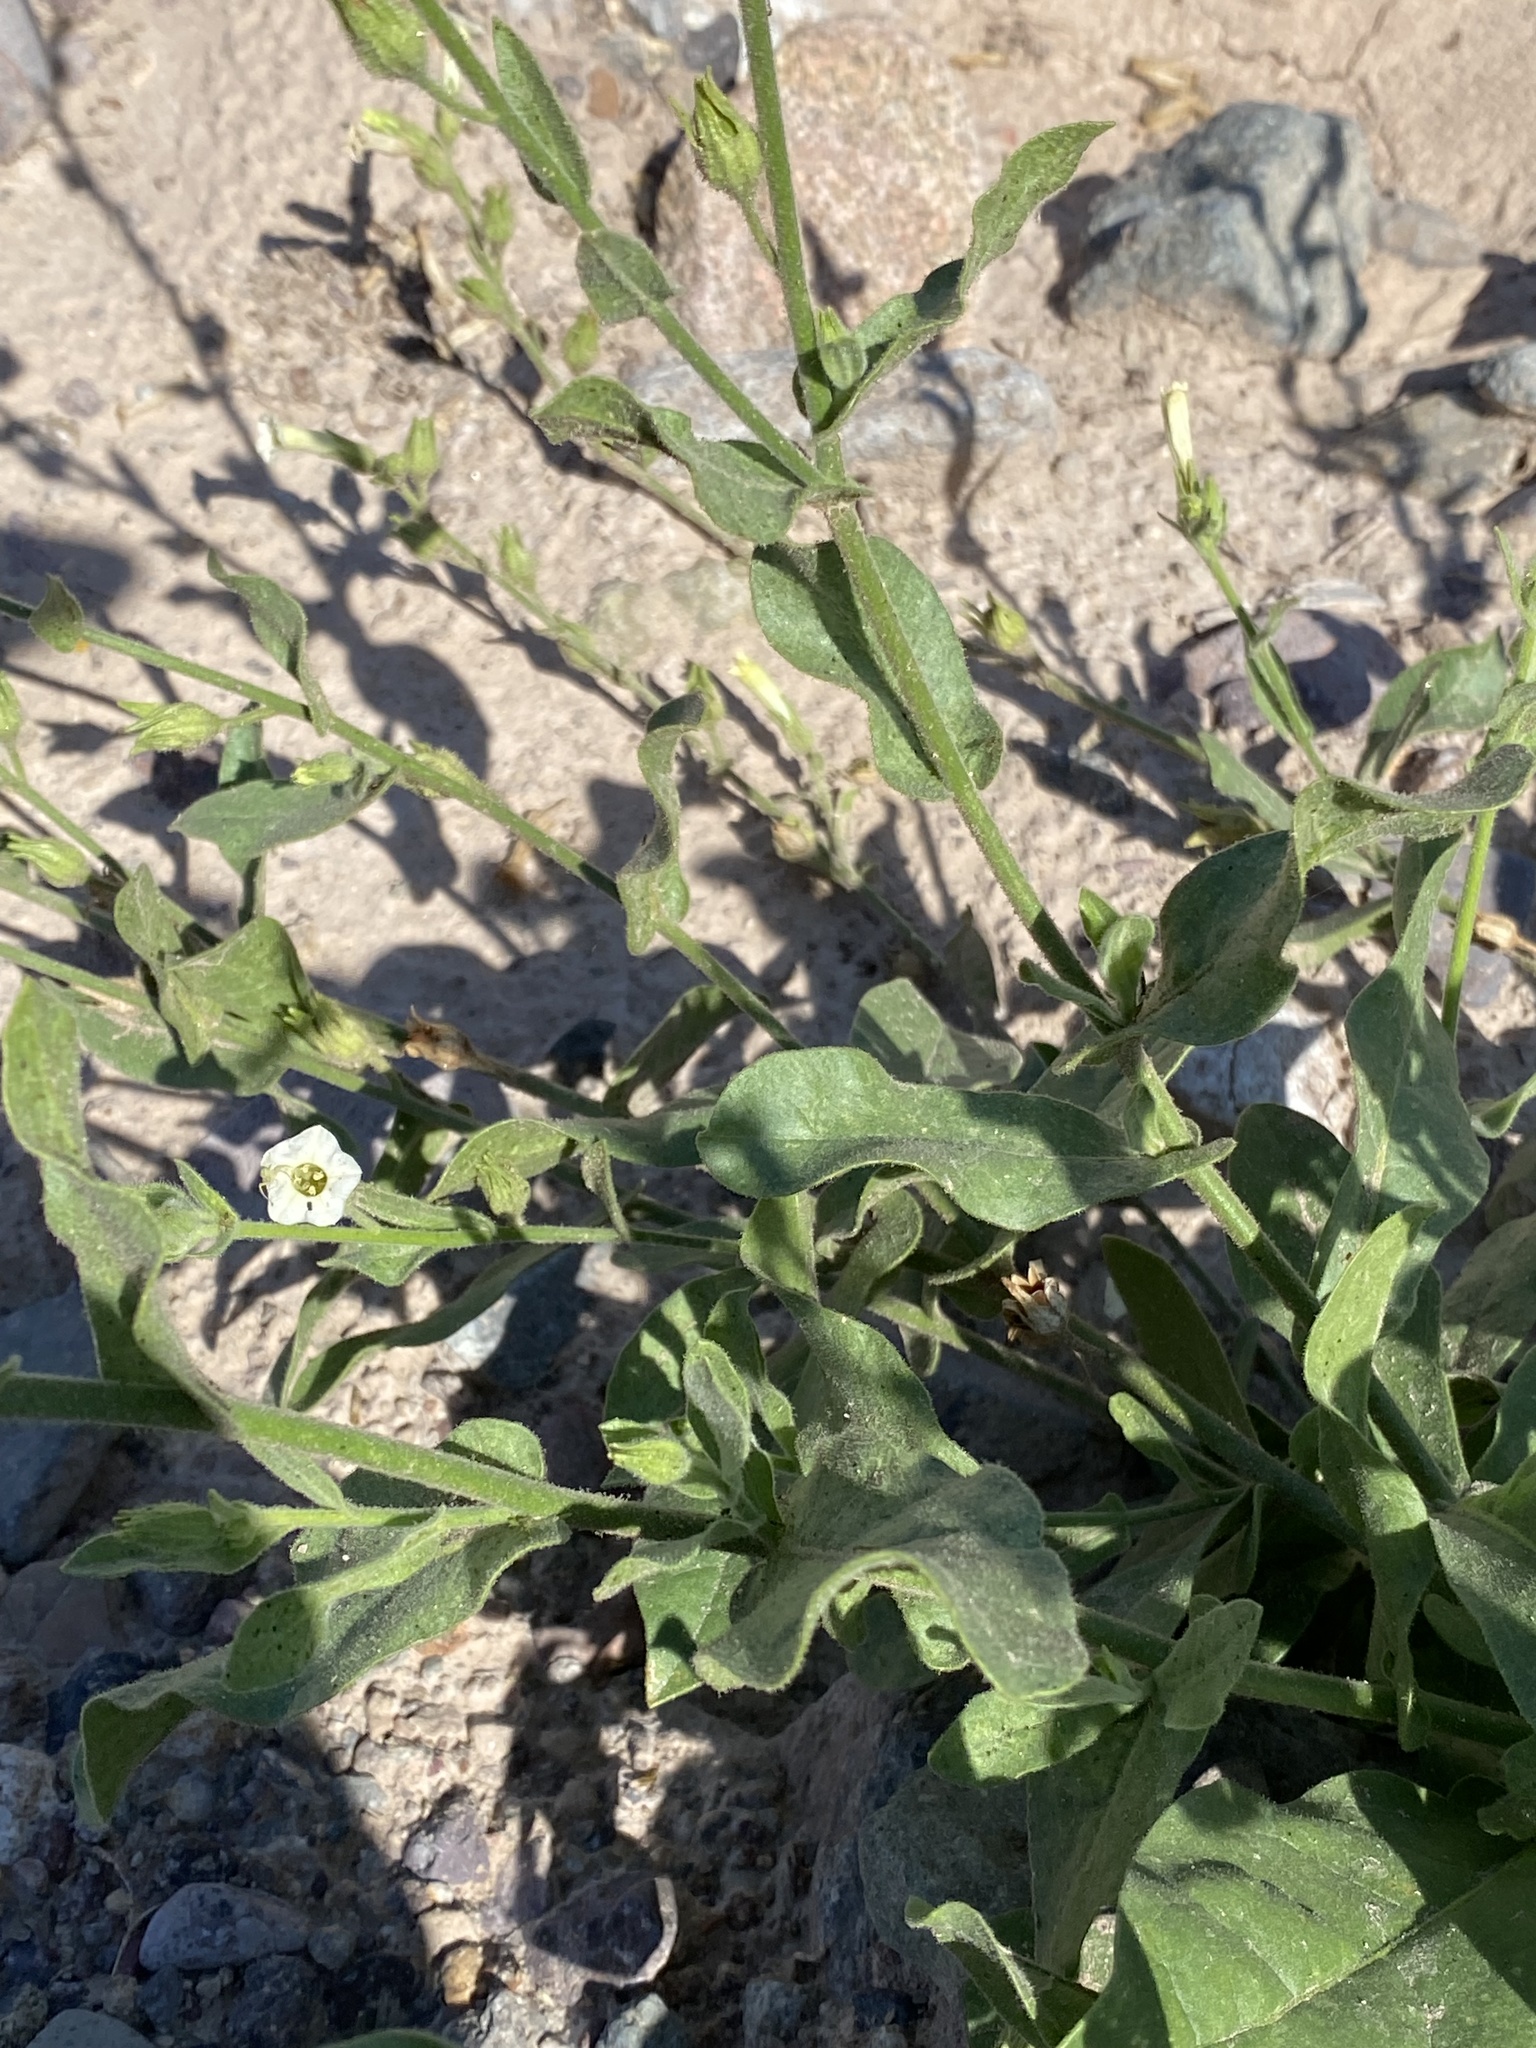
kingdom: Plantae
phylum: Tracheophyta
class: Magnoliopsida
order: Solanales
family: Solanaceae
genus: Nicotiana
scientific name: Nicotiana obtusifolia
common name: Desert tobacco
